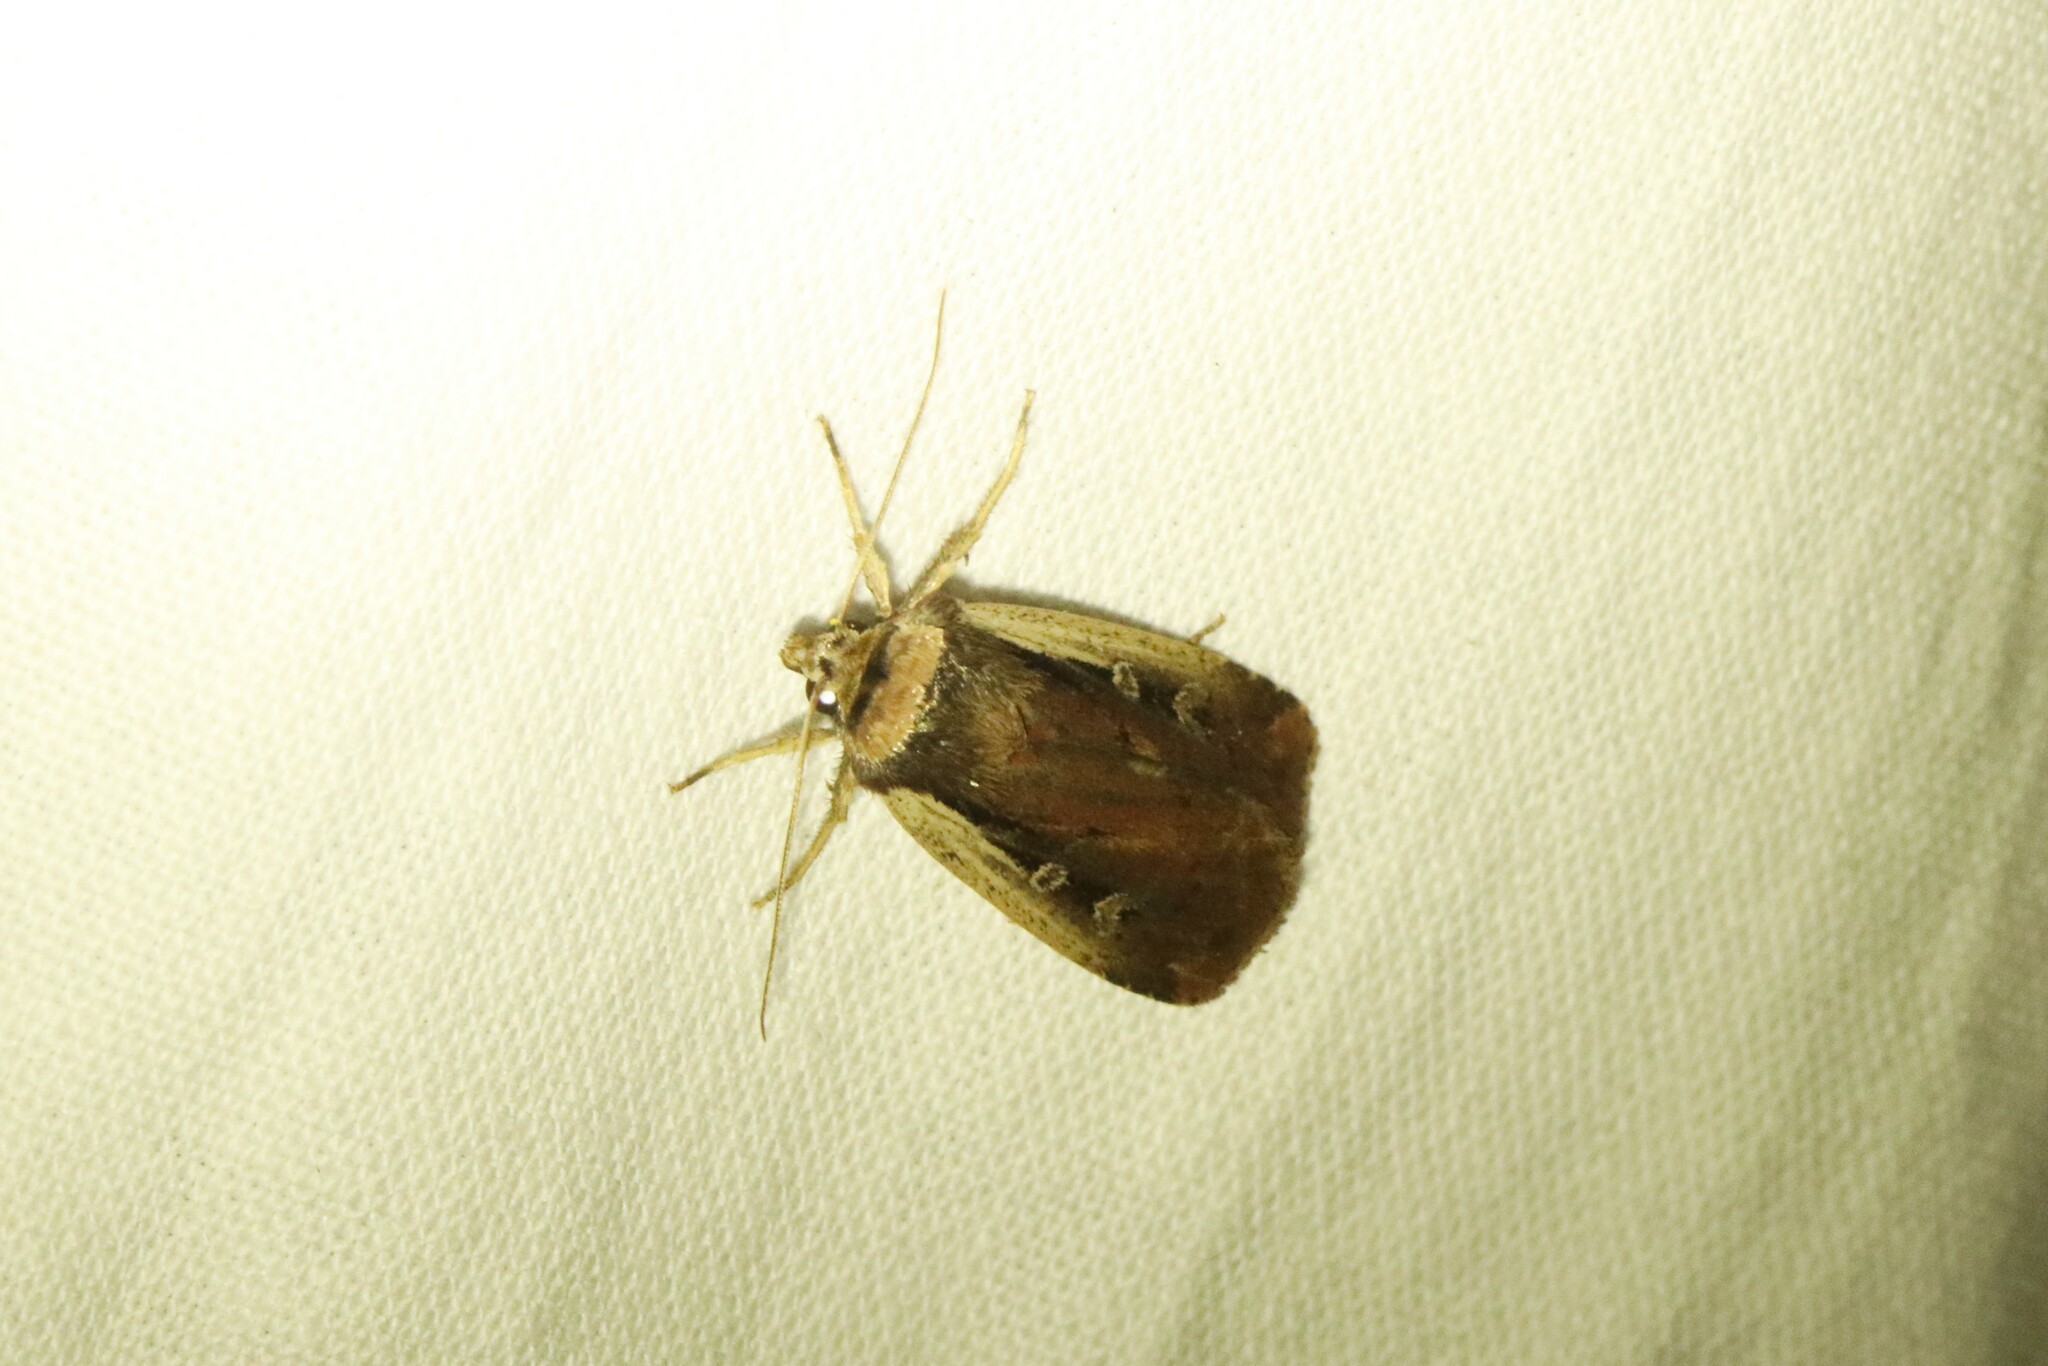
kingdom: Animalia
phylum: Arthropoda
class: Insecta
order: Lepidoptera
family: Noctuidae
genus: Ochropleura
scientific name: Ochropleura implecta
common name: Flame-shouldered dart
